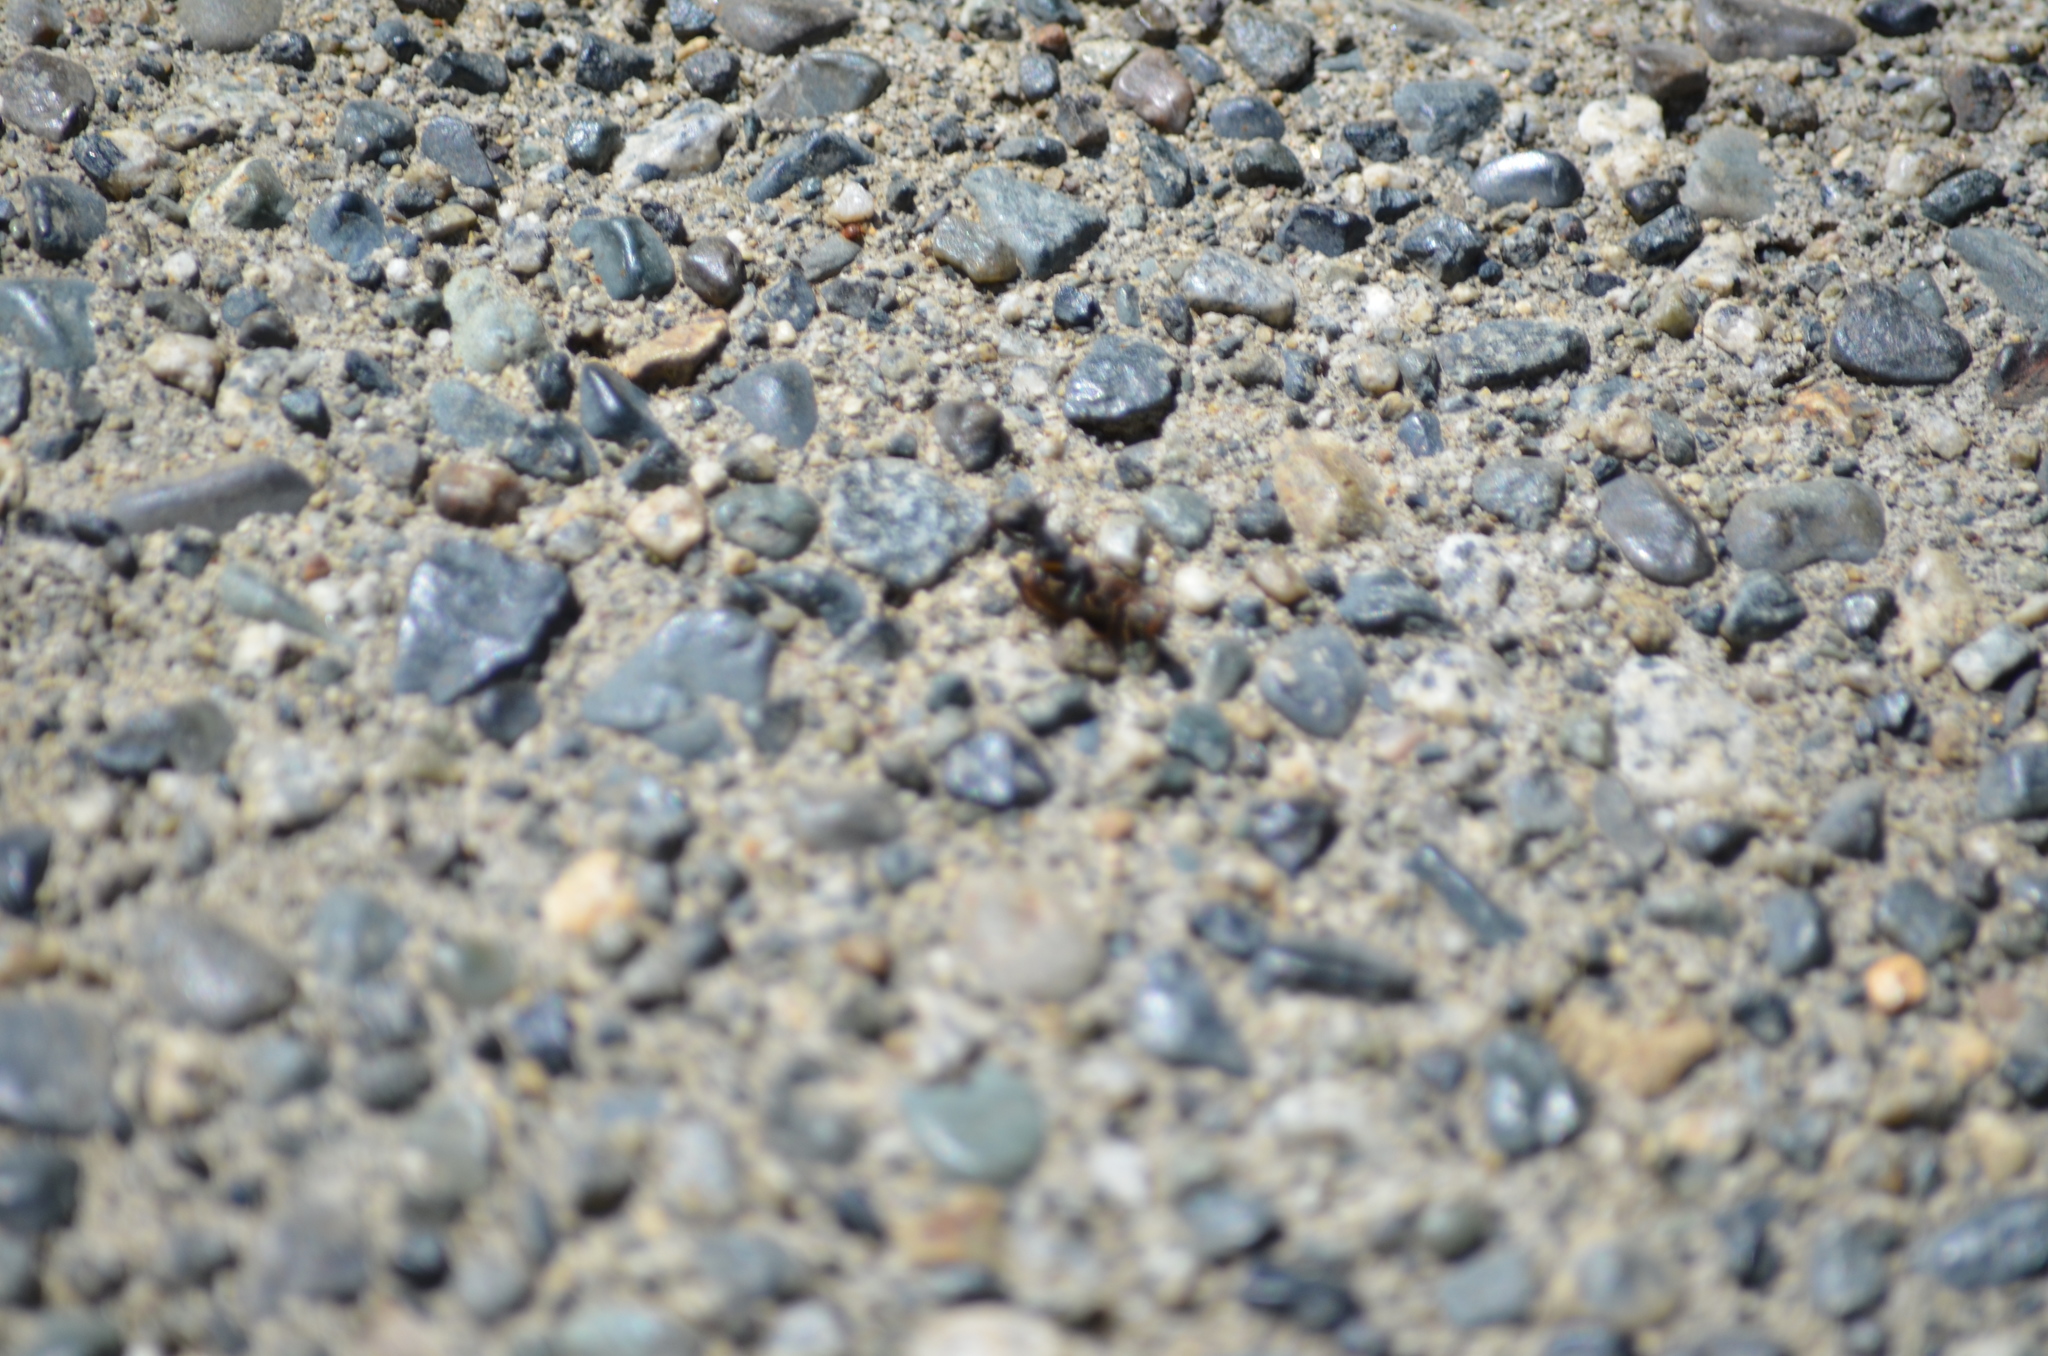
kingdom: Animalia
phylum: Arthropoda
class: Insecta
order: Hymenoptera
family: Formicidae
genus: Camponotus
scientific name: Camponotus modoc
